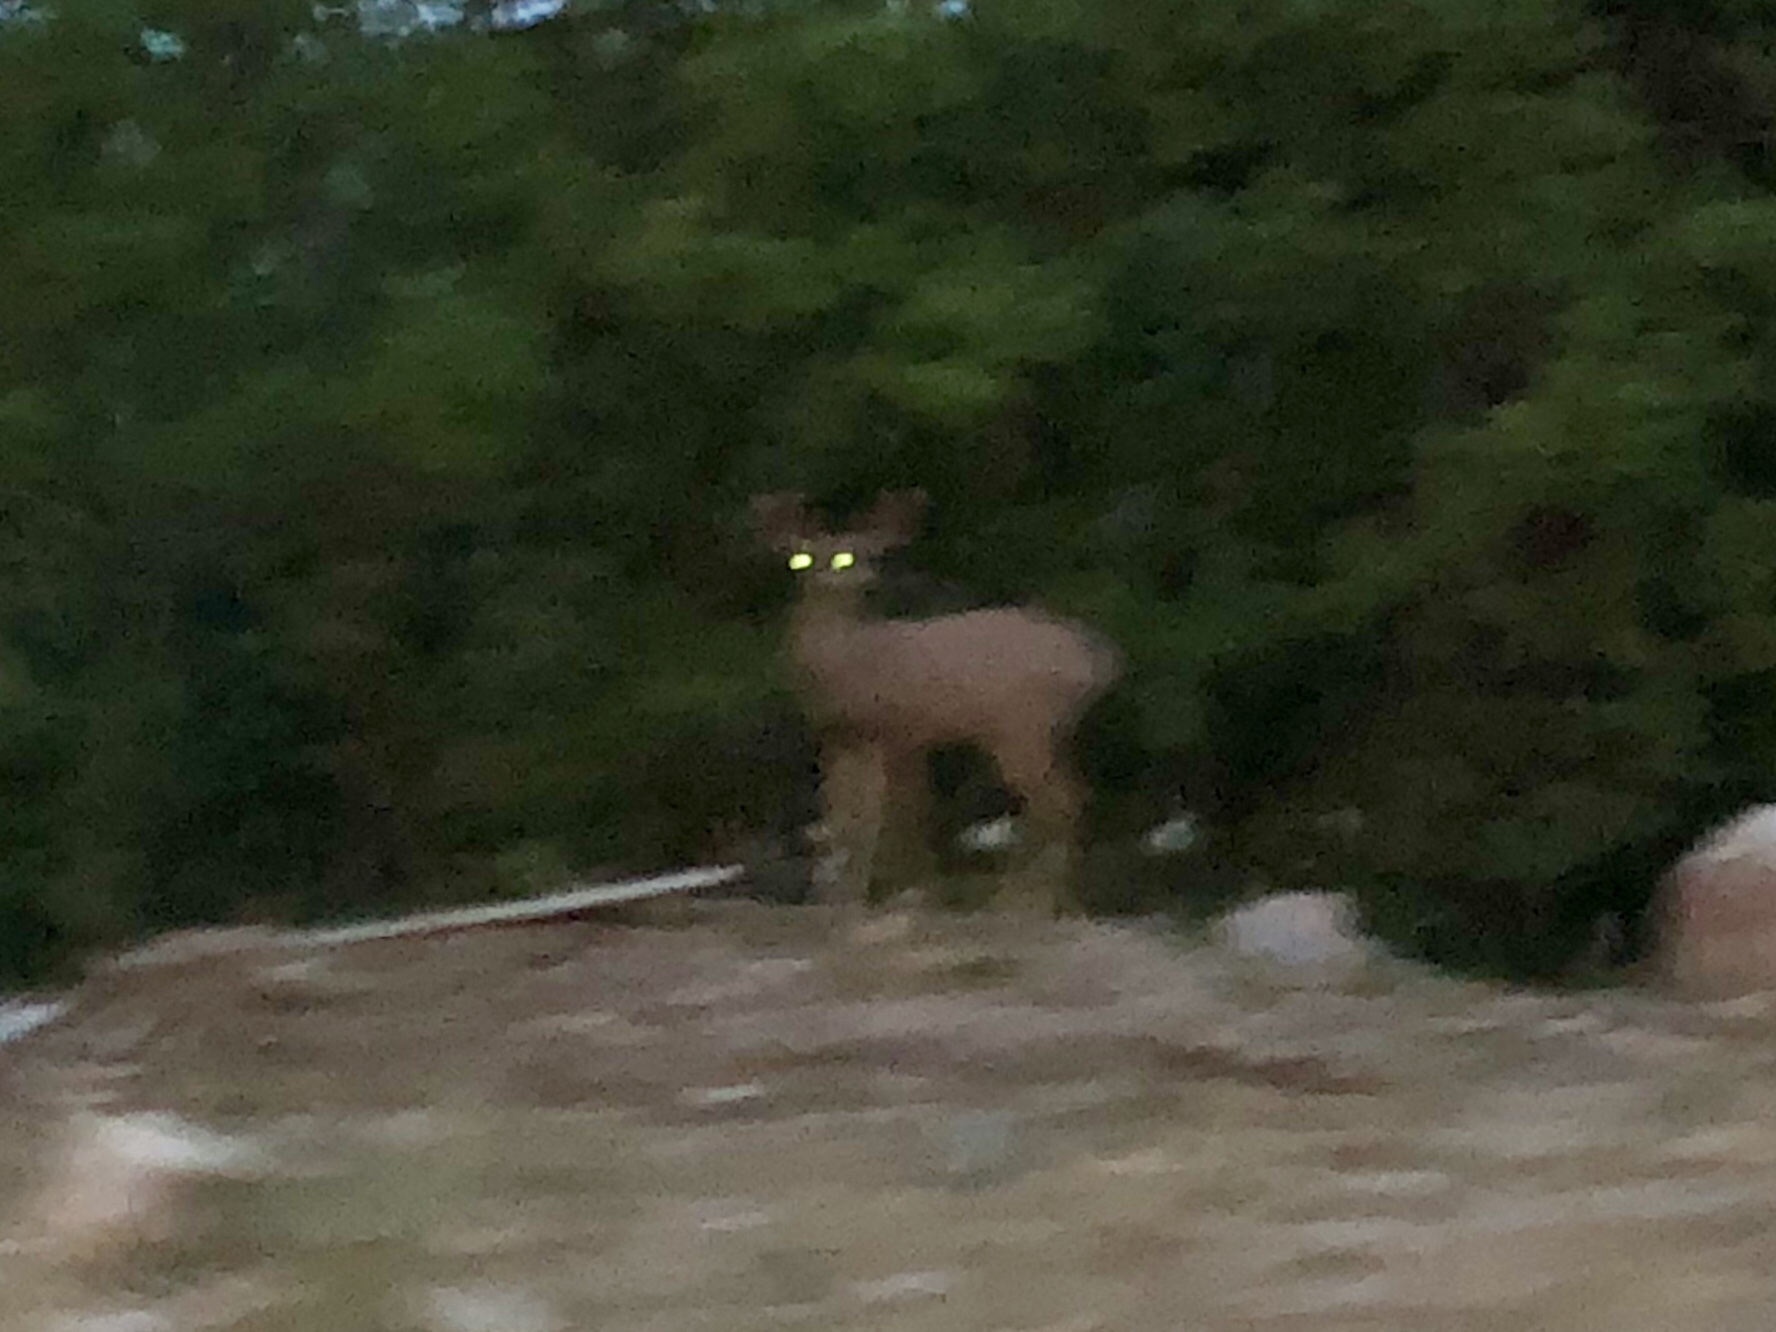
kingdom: Animalia
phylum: Chordata
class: Mammalia
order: Artiodactyla
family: Cervidae
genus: Odocoileus
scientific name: Odocoileus hemionus
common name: Mule deer
